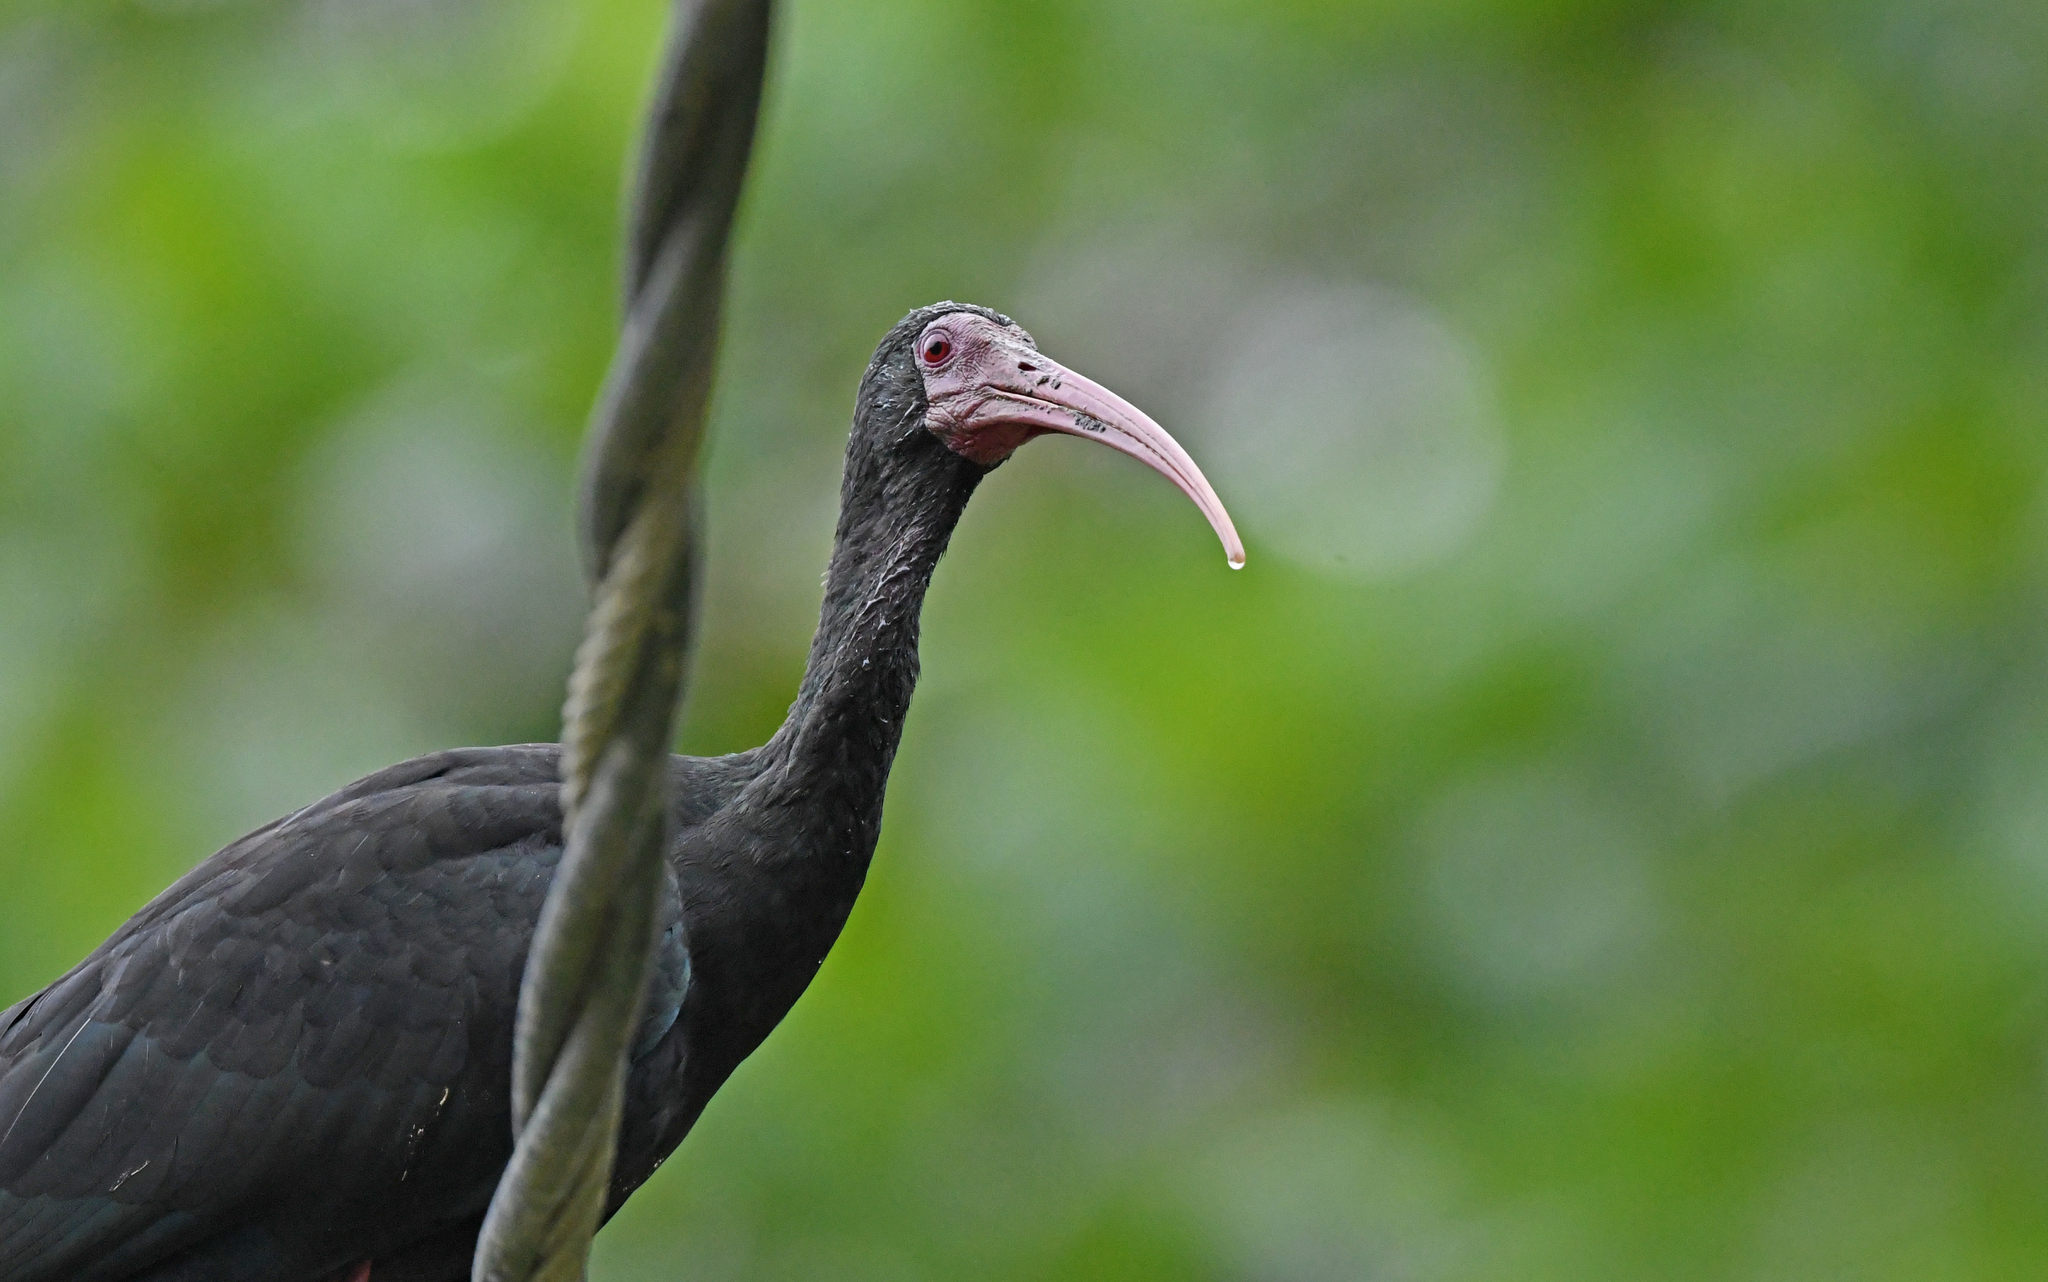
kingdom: Animalia
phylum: Chordata
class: Aves
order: Pelecaniformes
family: Threskiornithidae
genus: Phimosus
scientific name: Phimosus infuscatus
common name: Bare-faced ibis
